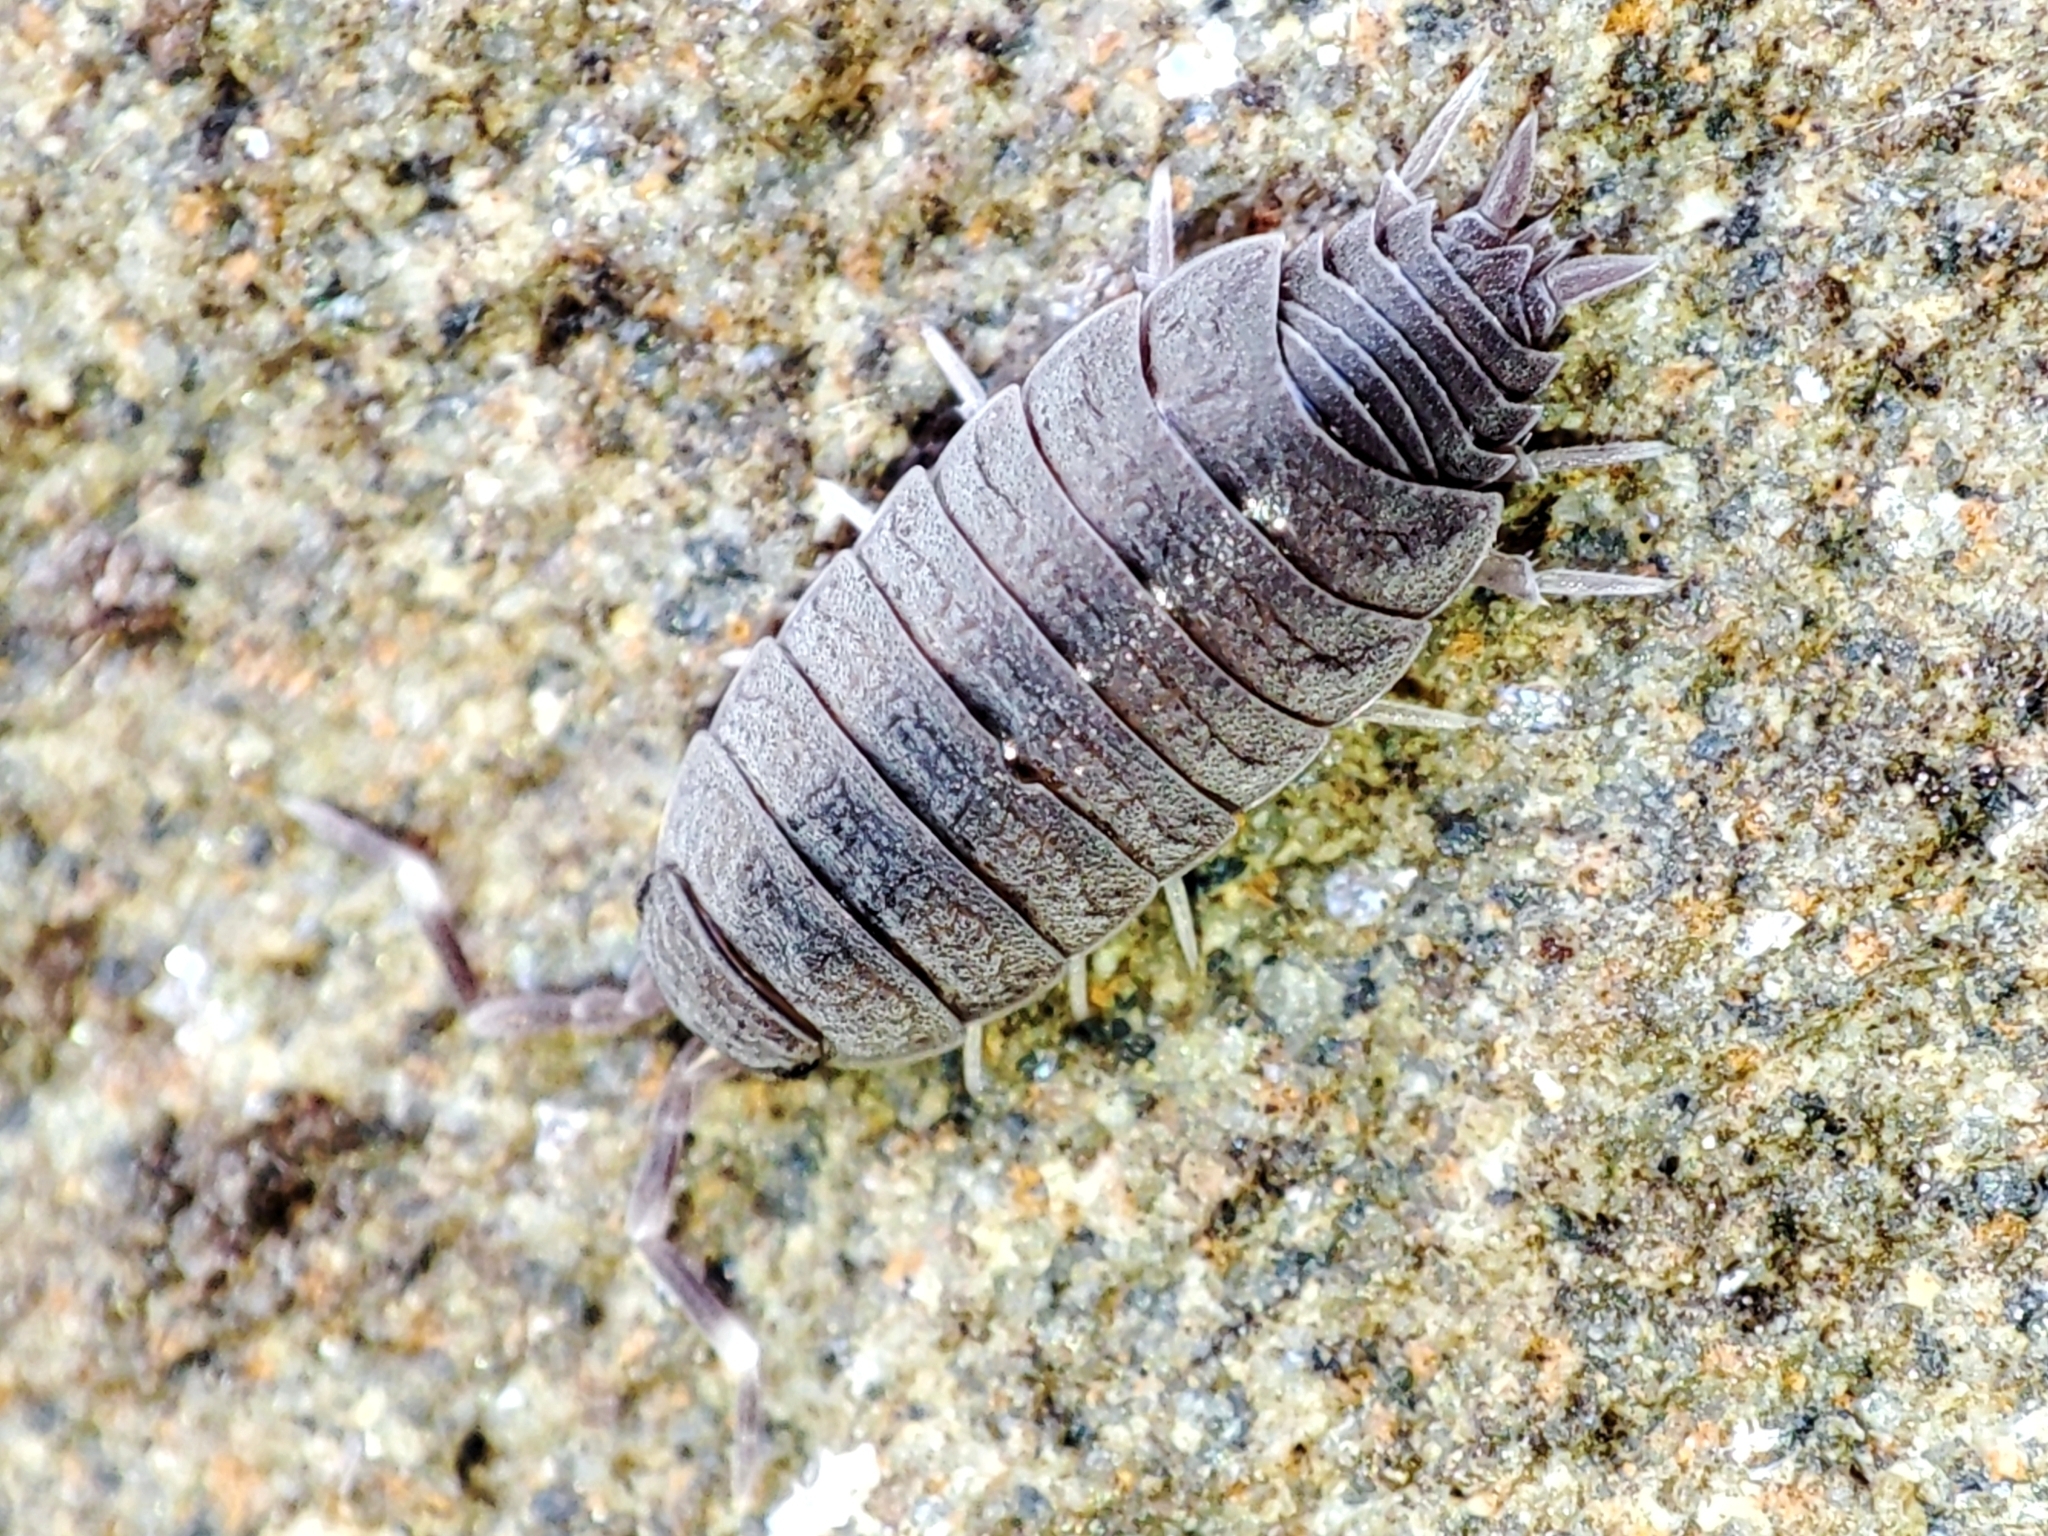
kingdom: Animalia
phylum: Arthropoda
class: Malacostraca
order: Isopoda
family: Porcellionidae
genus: Porcellionides
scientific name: Porcellionides pruinosus
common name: Plum woodlouse
